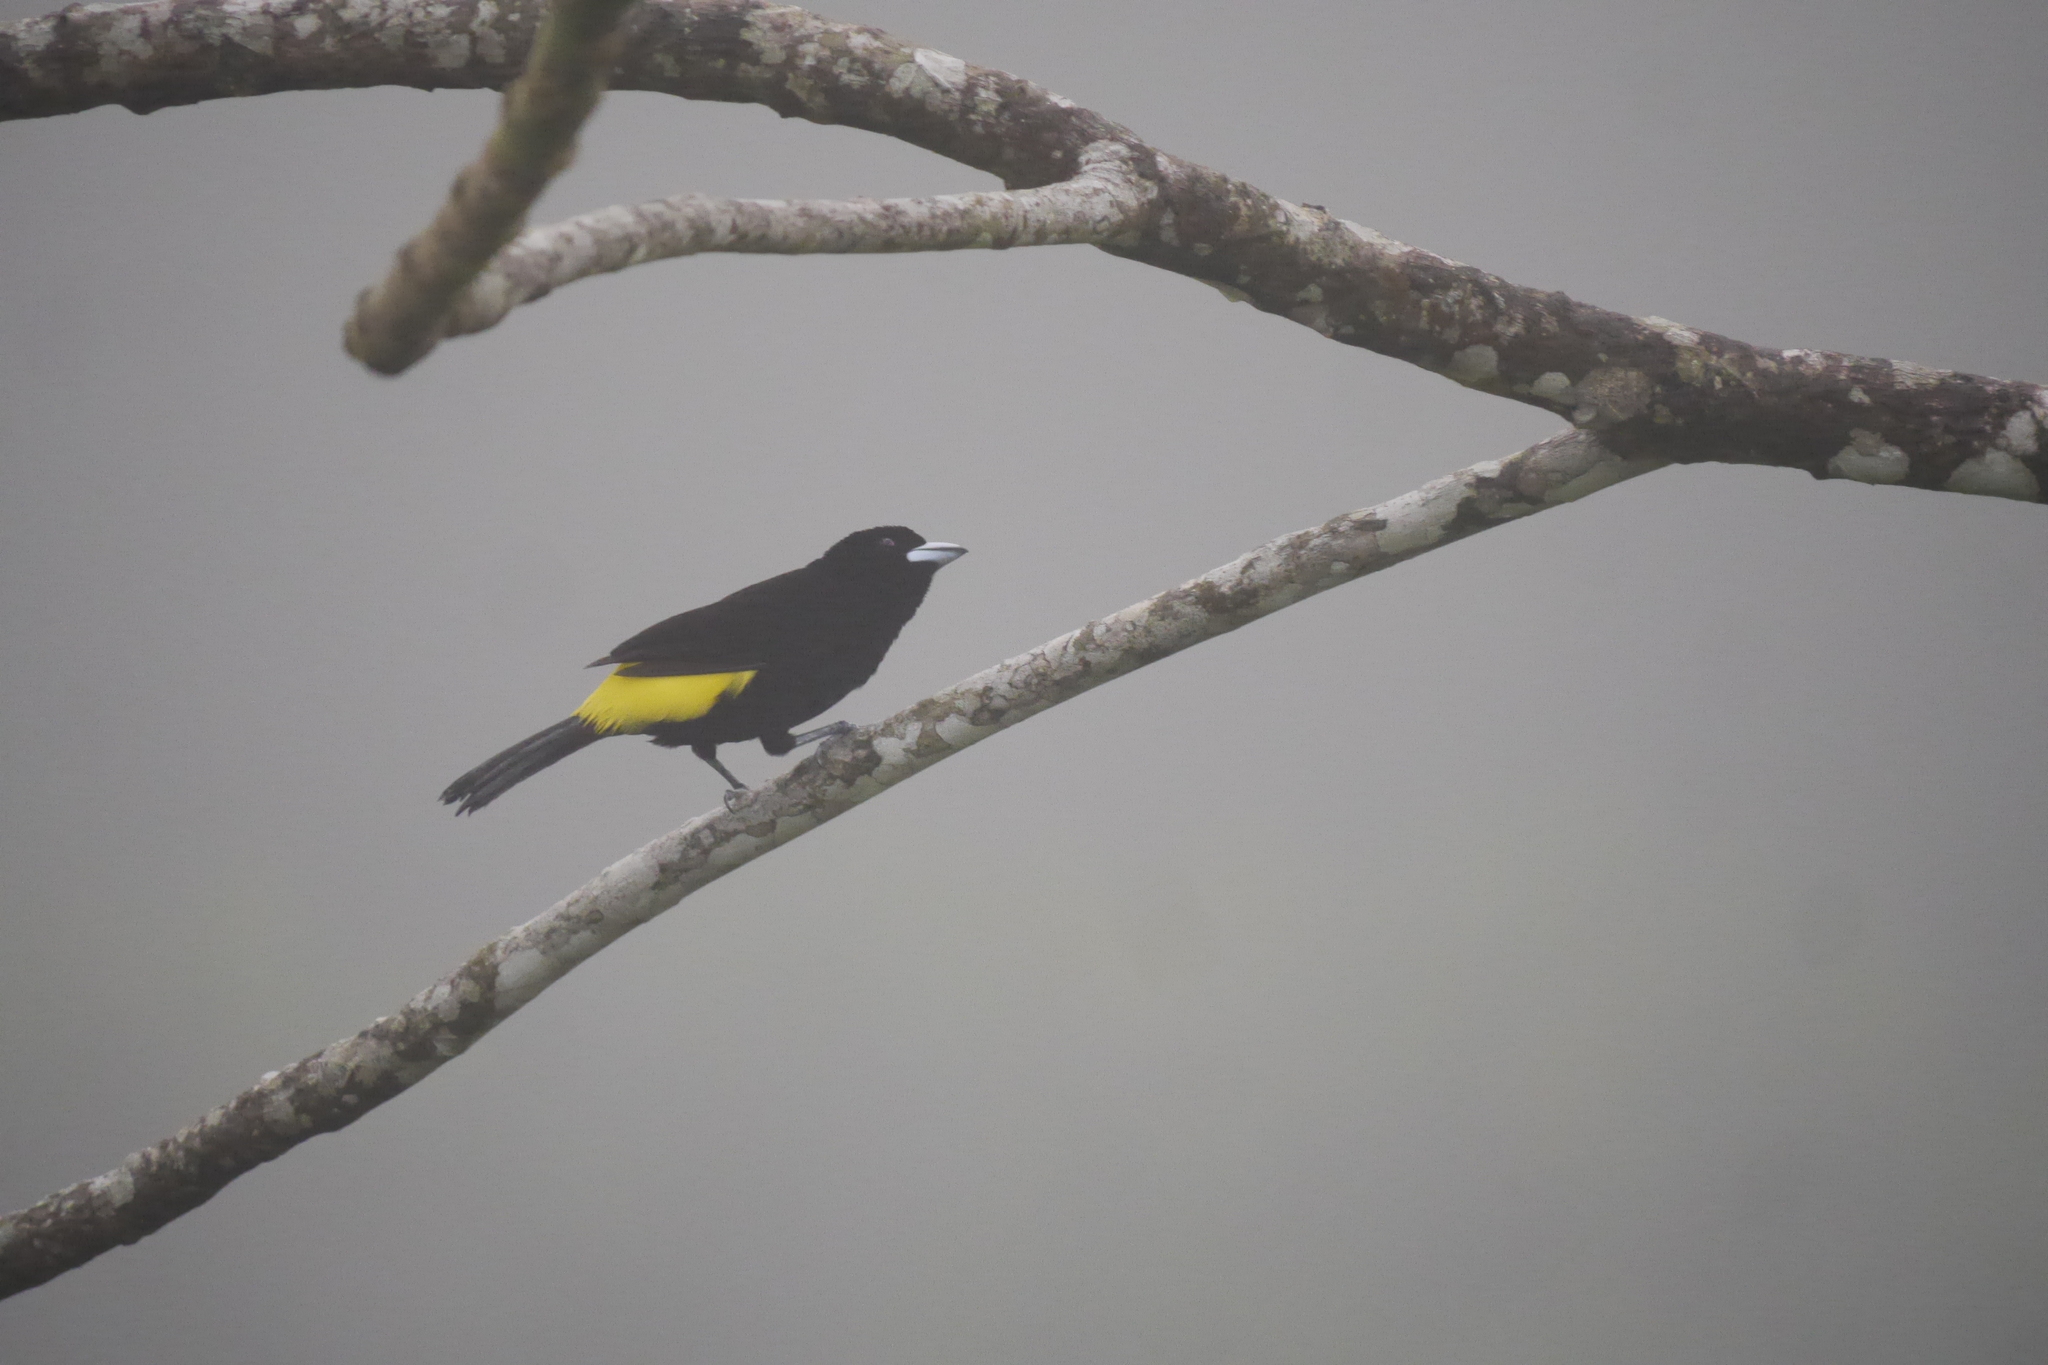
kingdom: Animalia
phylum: Chordata
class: Aves
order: Passeriformes
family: Thraupidae
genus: Ramphocelus
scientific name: Ramphocelus flammigerus
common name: Flame-rumped tanager
